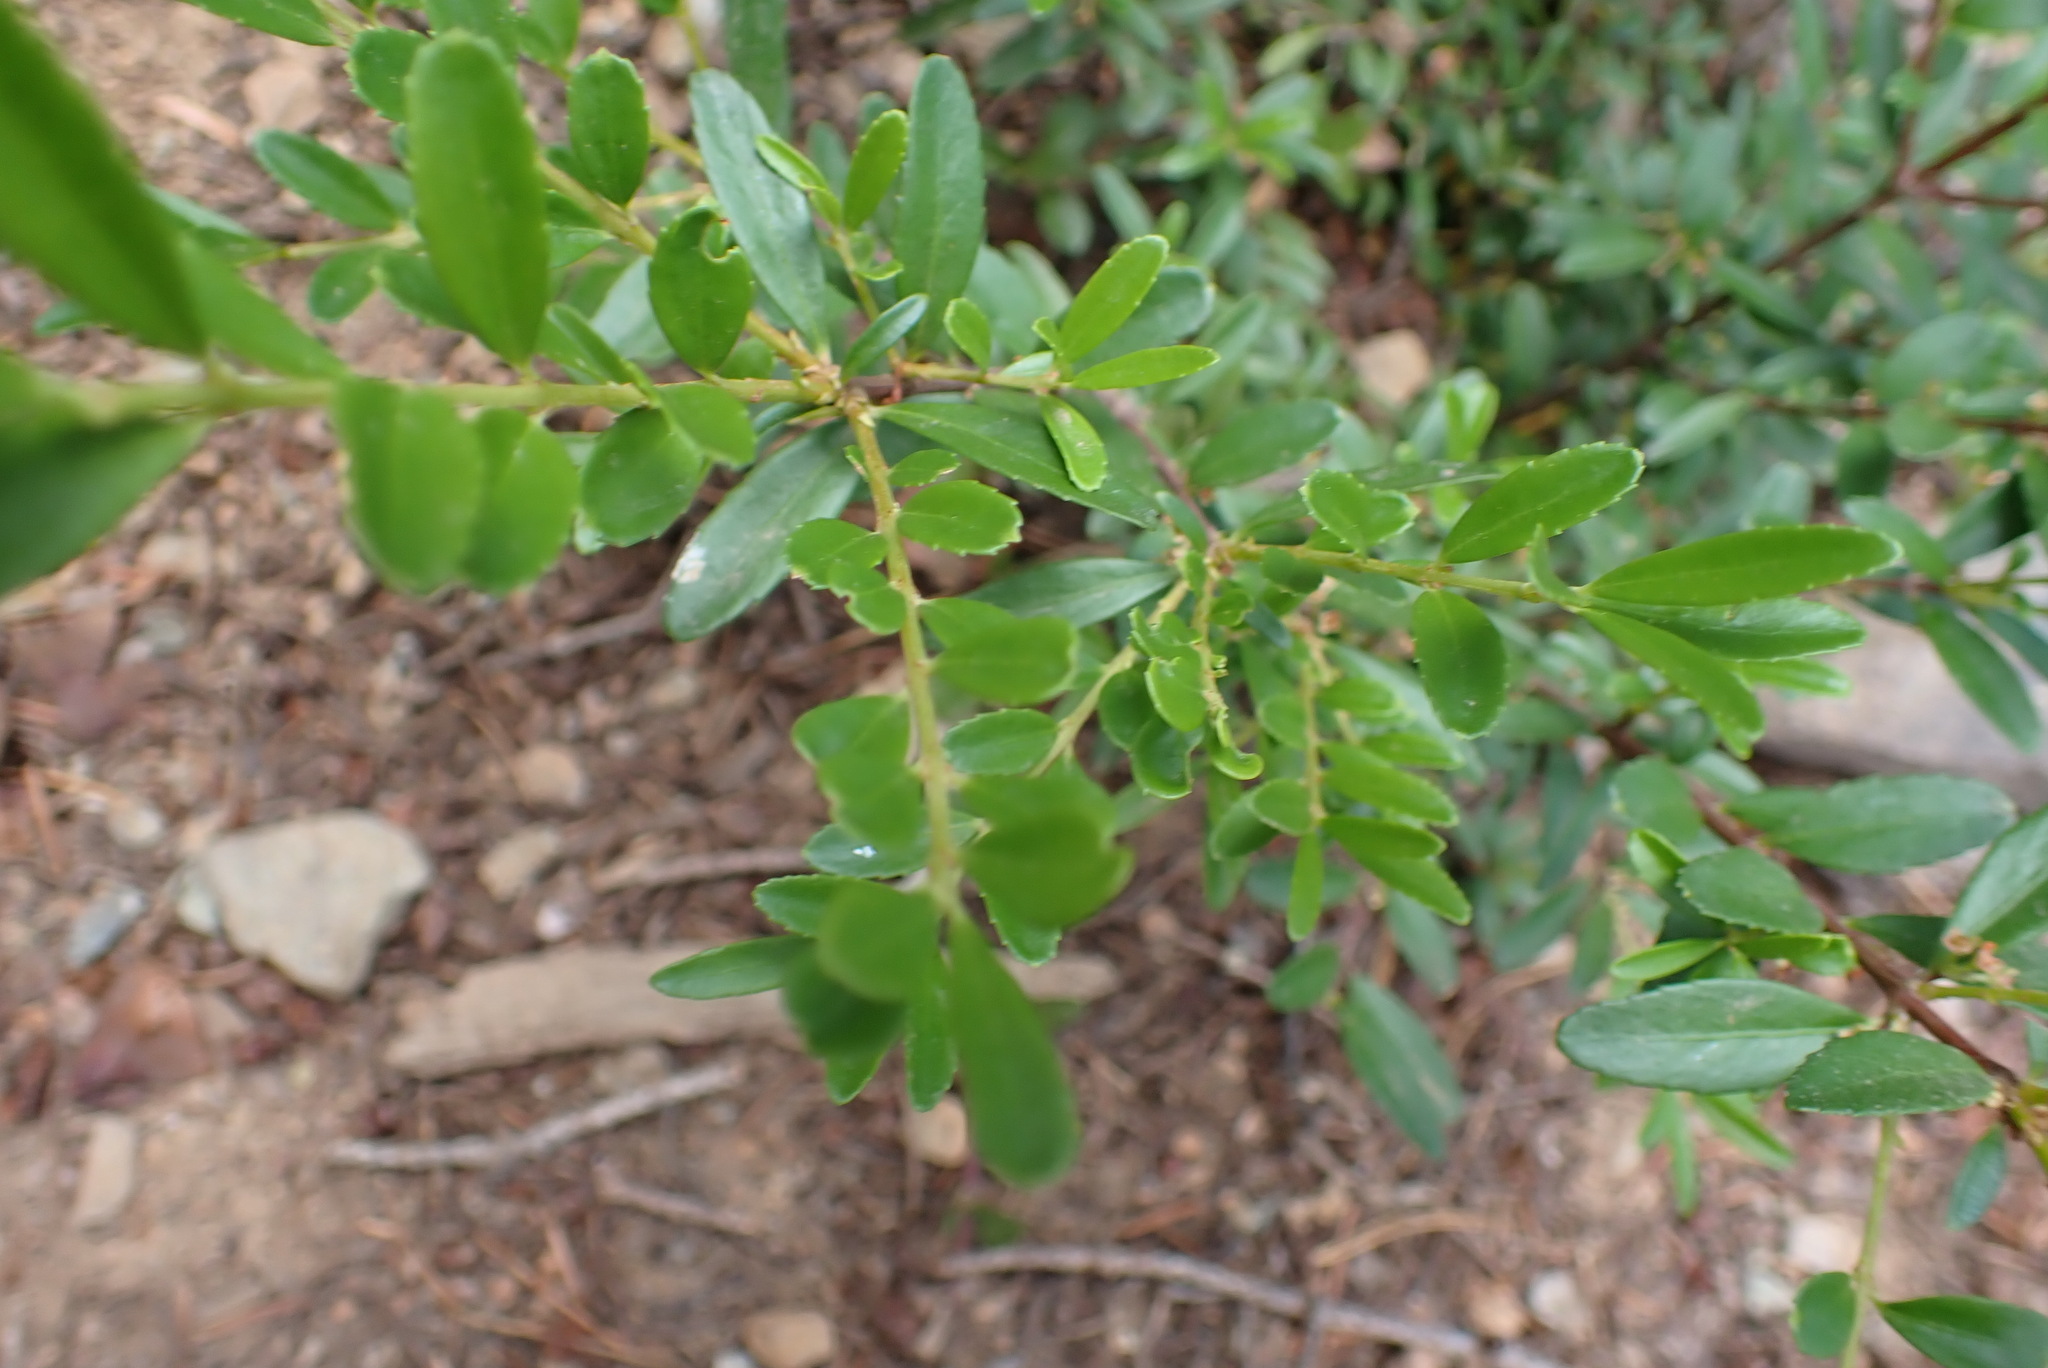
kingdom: Plantae
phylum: Tracheophyta
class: Magnoliopsida
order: Celastrales
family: Celastraceae
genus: Paxistima
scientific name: Paxistima myrsinites
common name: Mountain-lover
